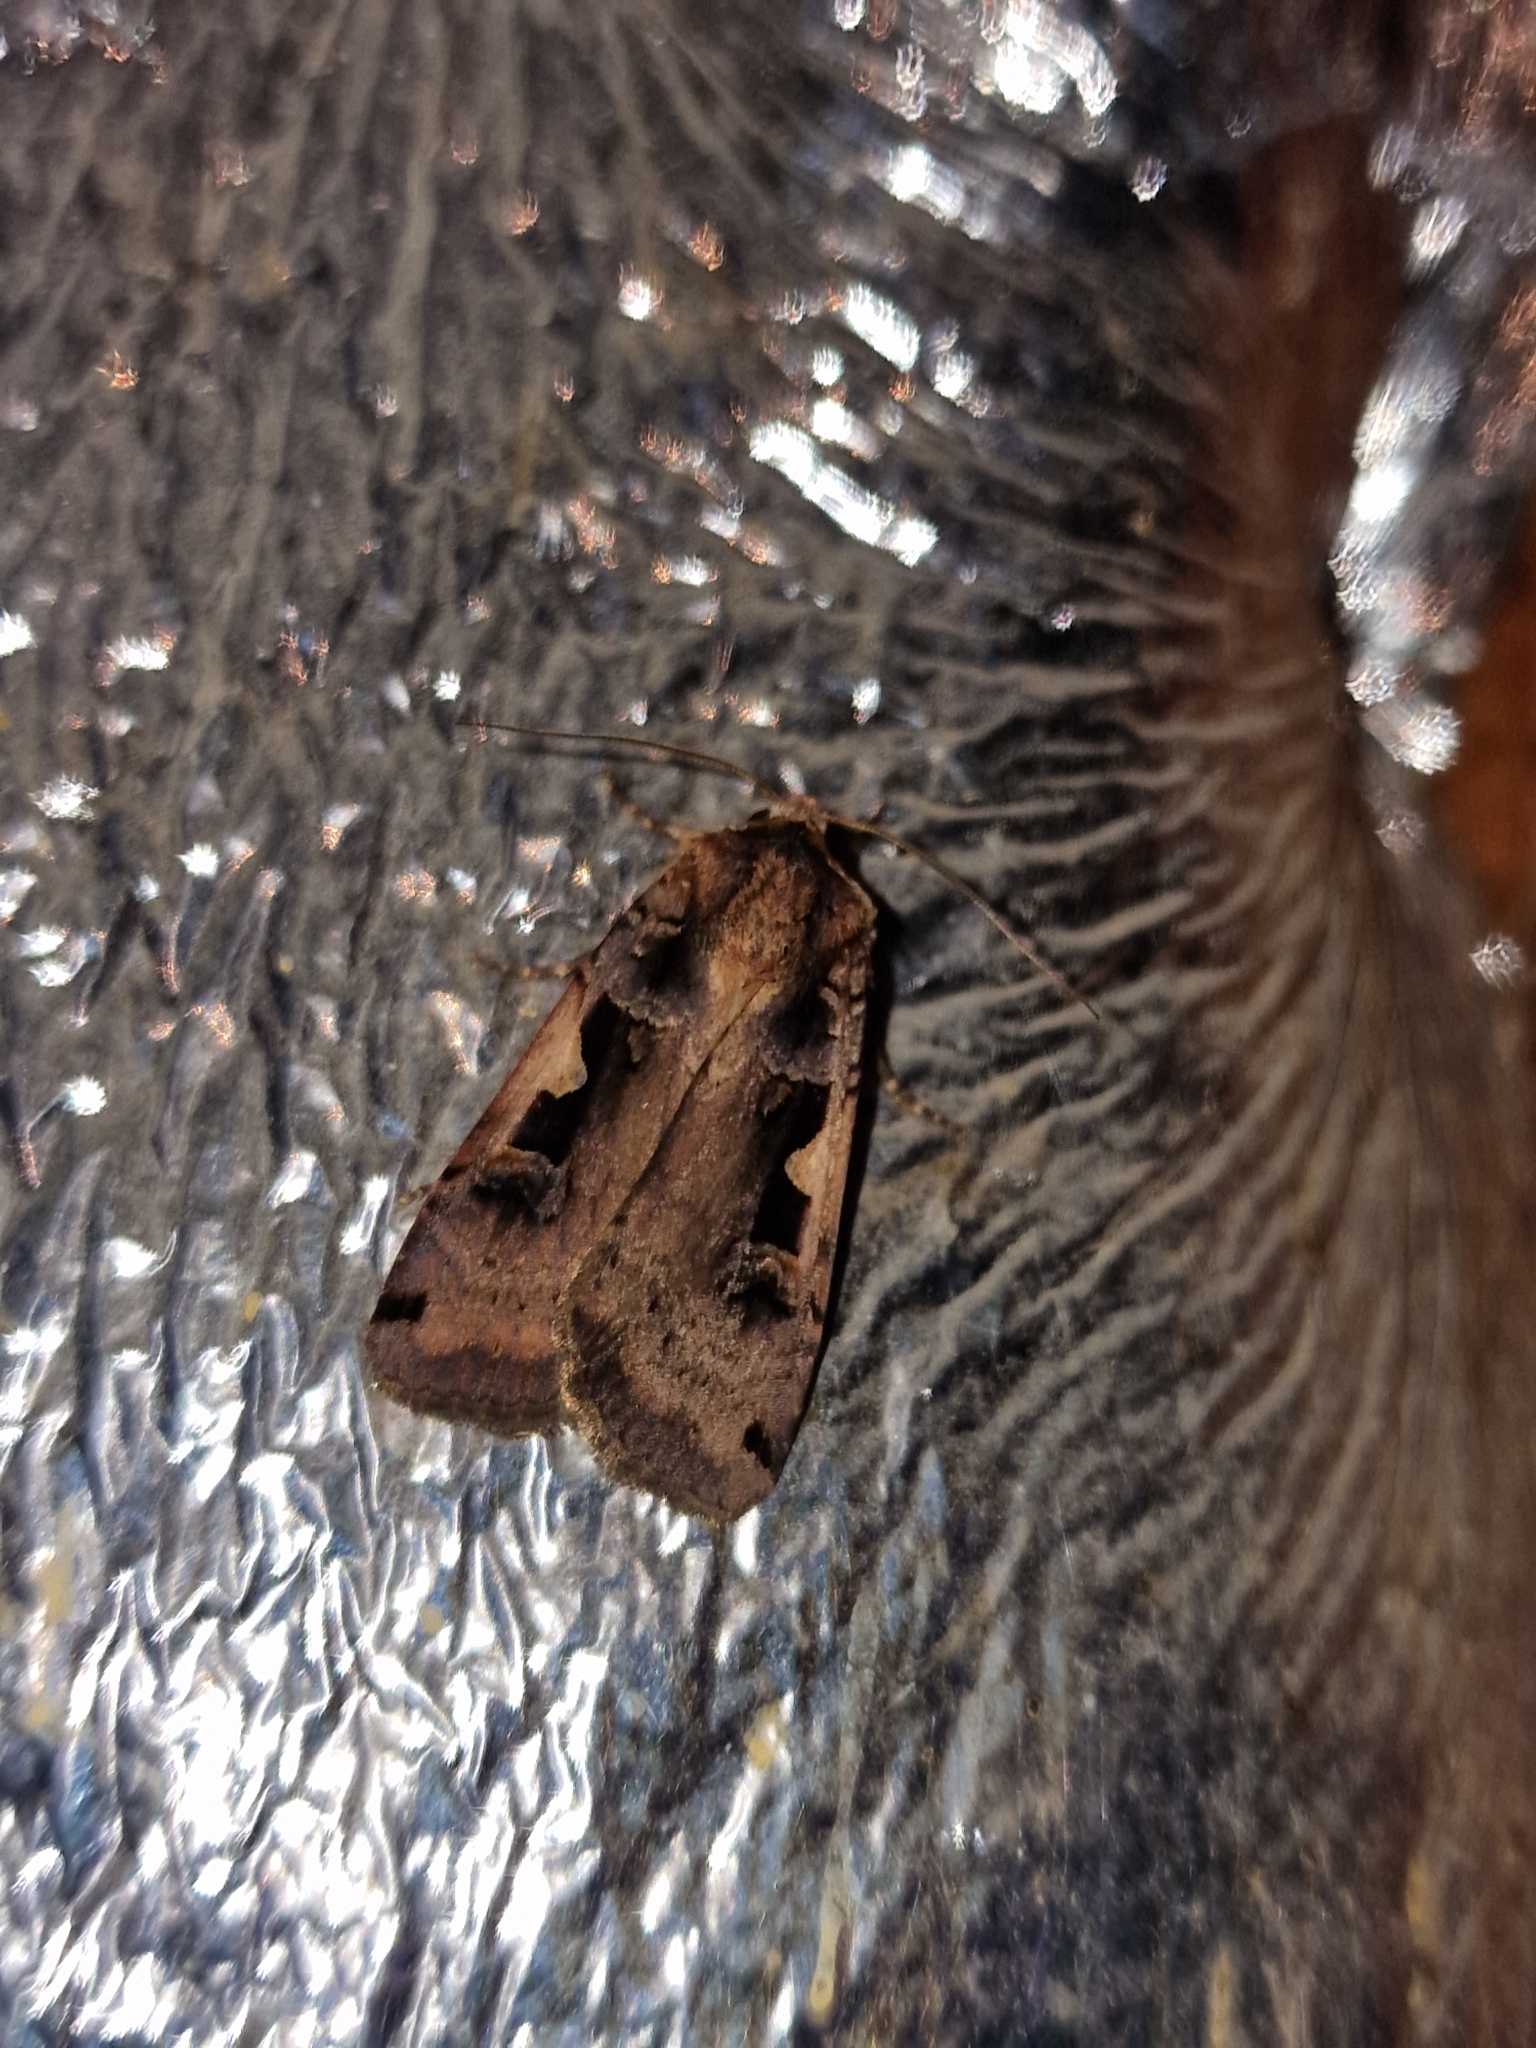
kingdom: Animalia
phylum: Arthropoda
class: Insecta
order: Lepidoptera
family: Noctuidae
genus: Xestia
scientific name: Xestia ditrapezium
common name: Triple-spotted clay
